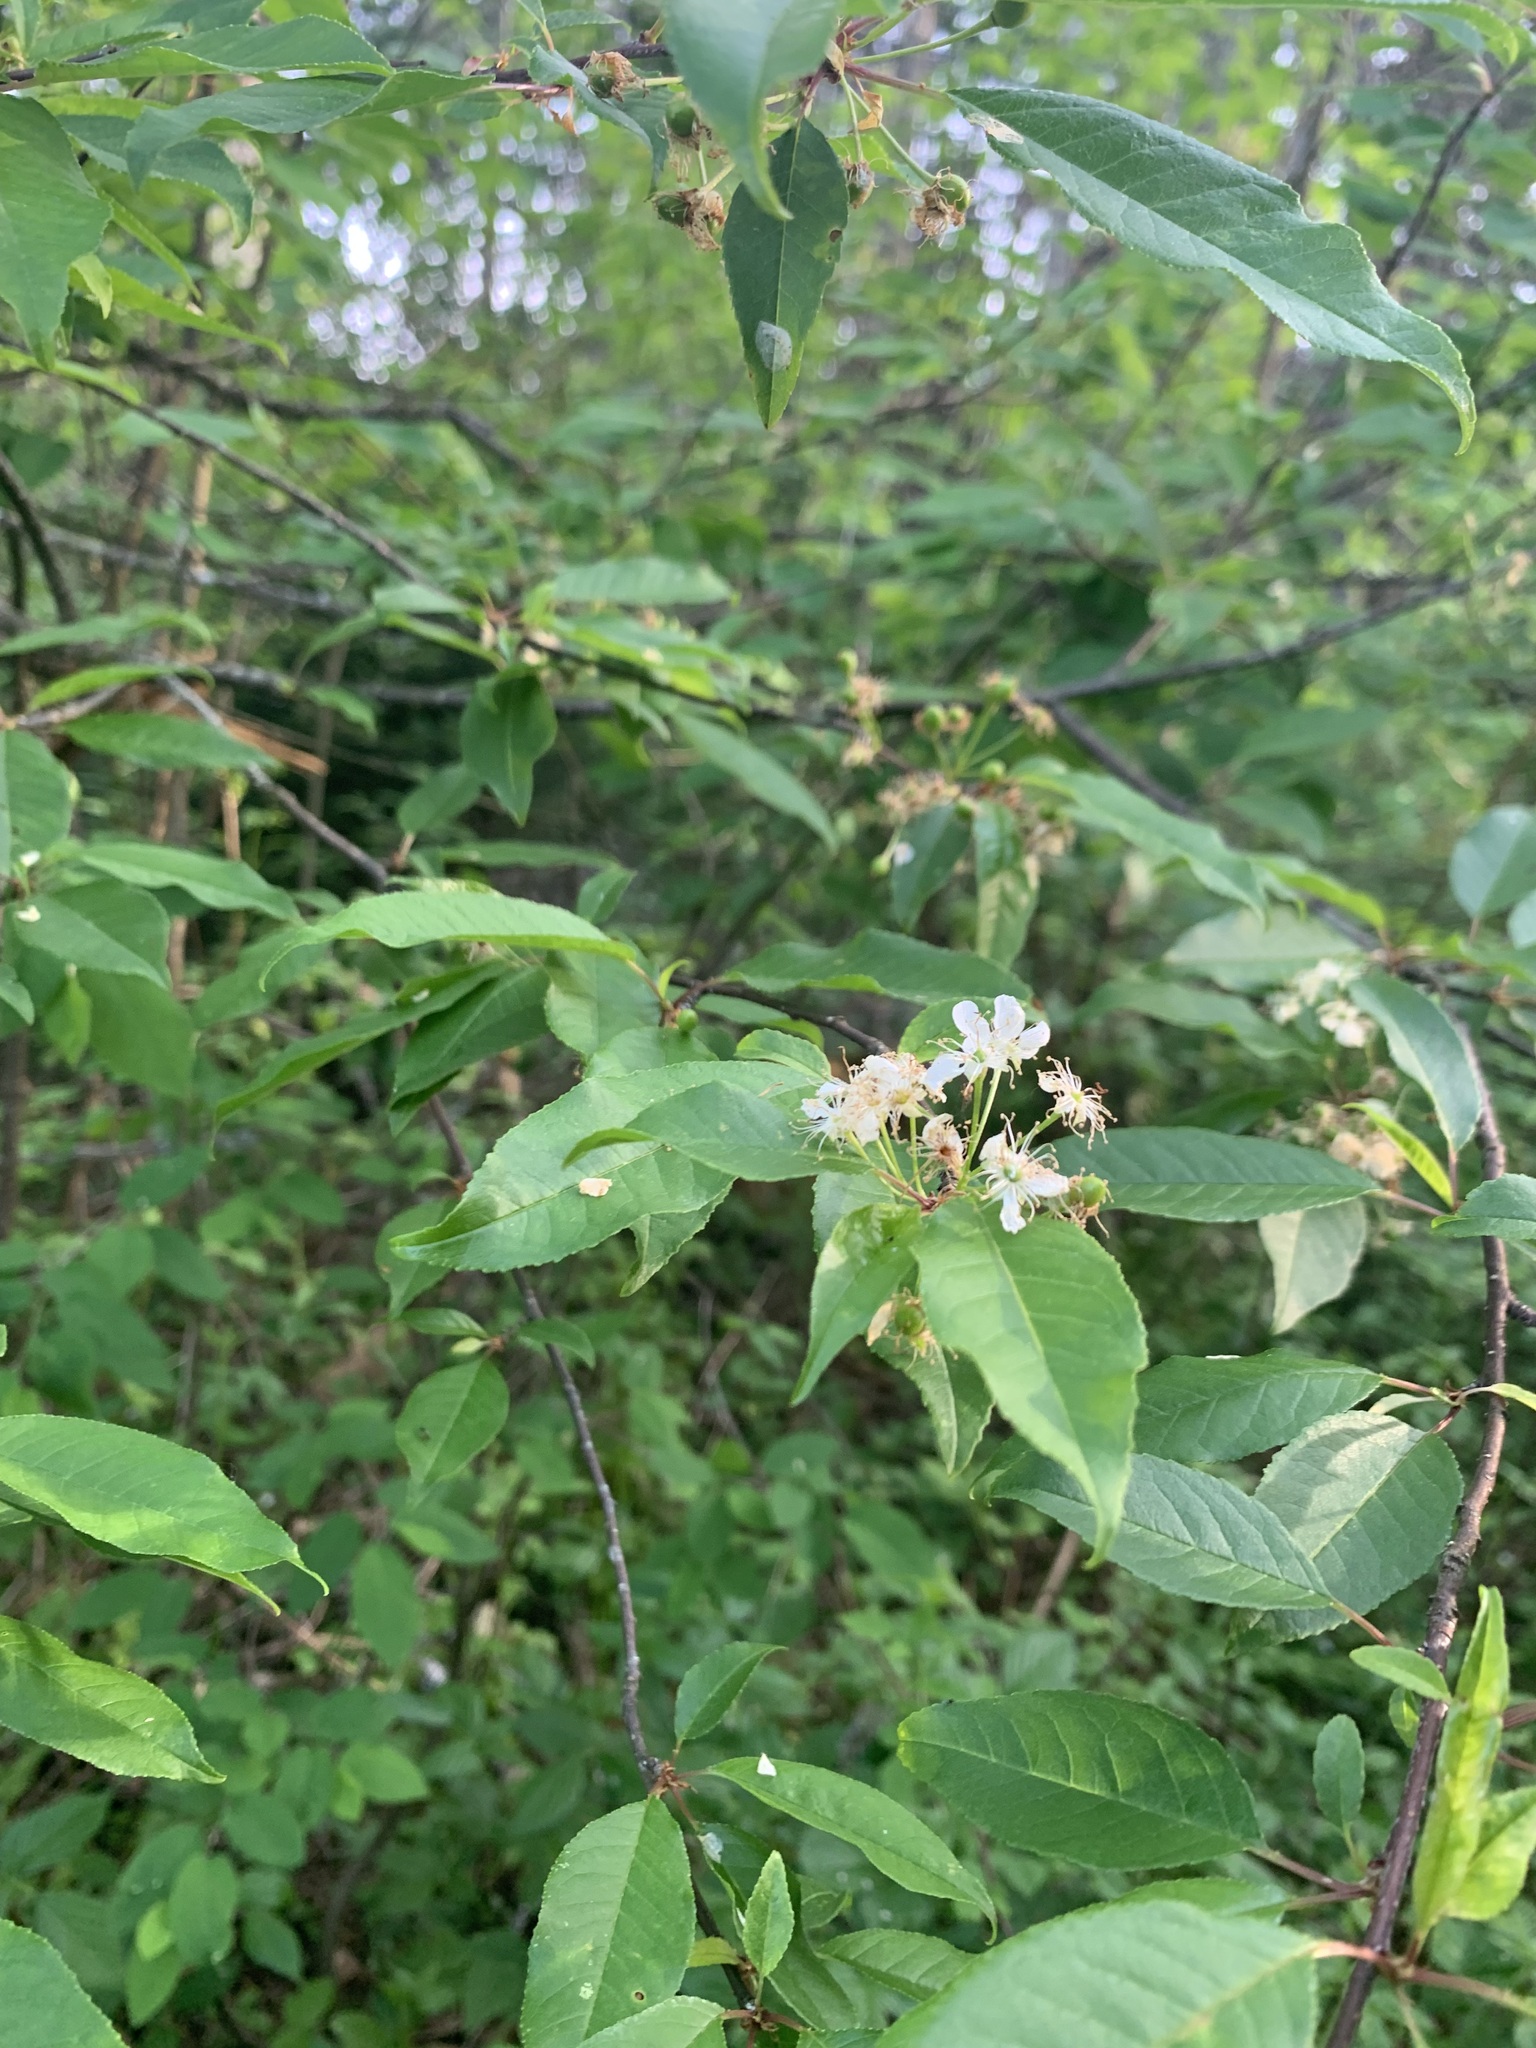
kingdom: Plantae
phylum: Tracheophyta
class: Magnoliopsida
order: Rosales
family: Rosaceae
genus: Prunus
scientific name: Prunus pensylvanica
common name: Pin cherry
